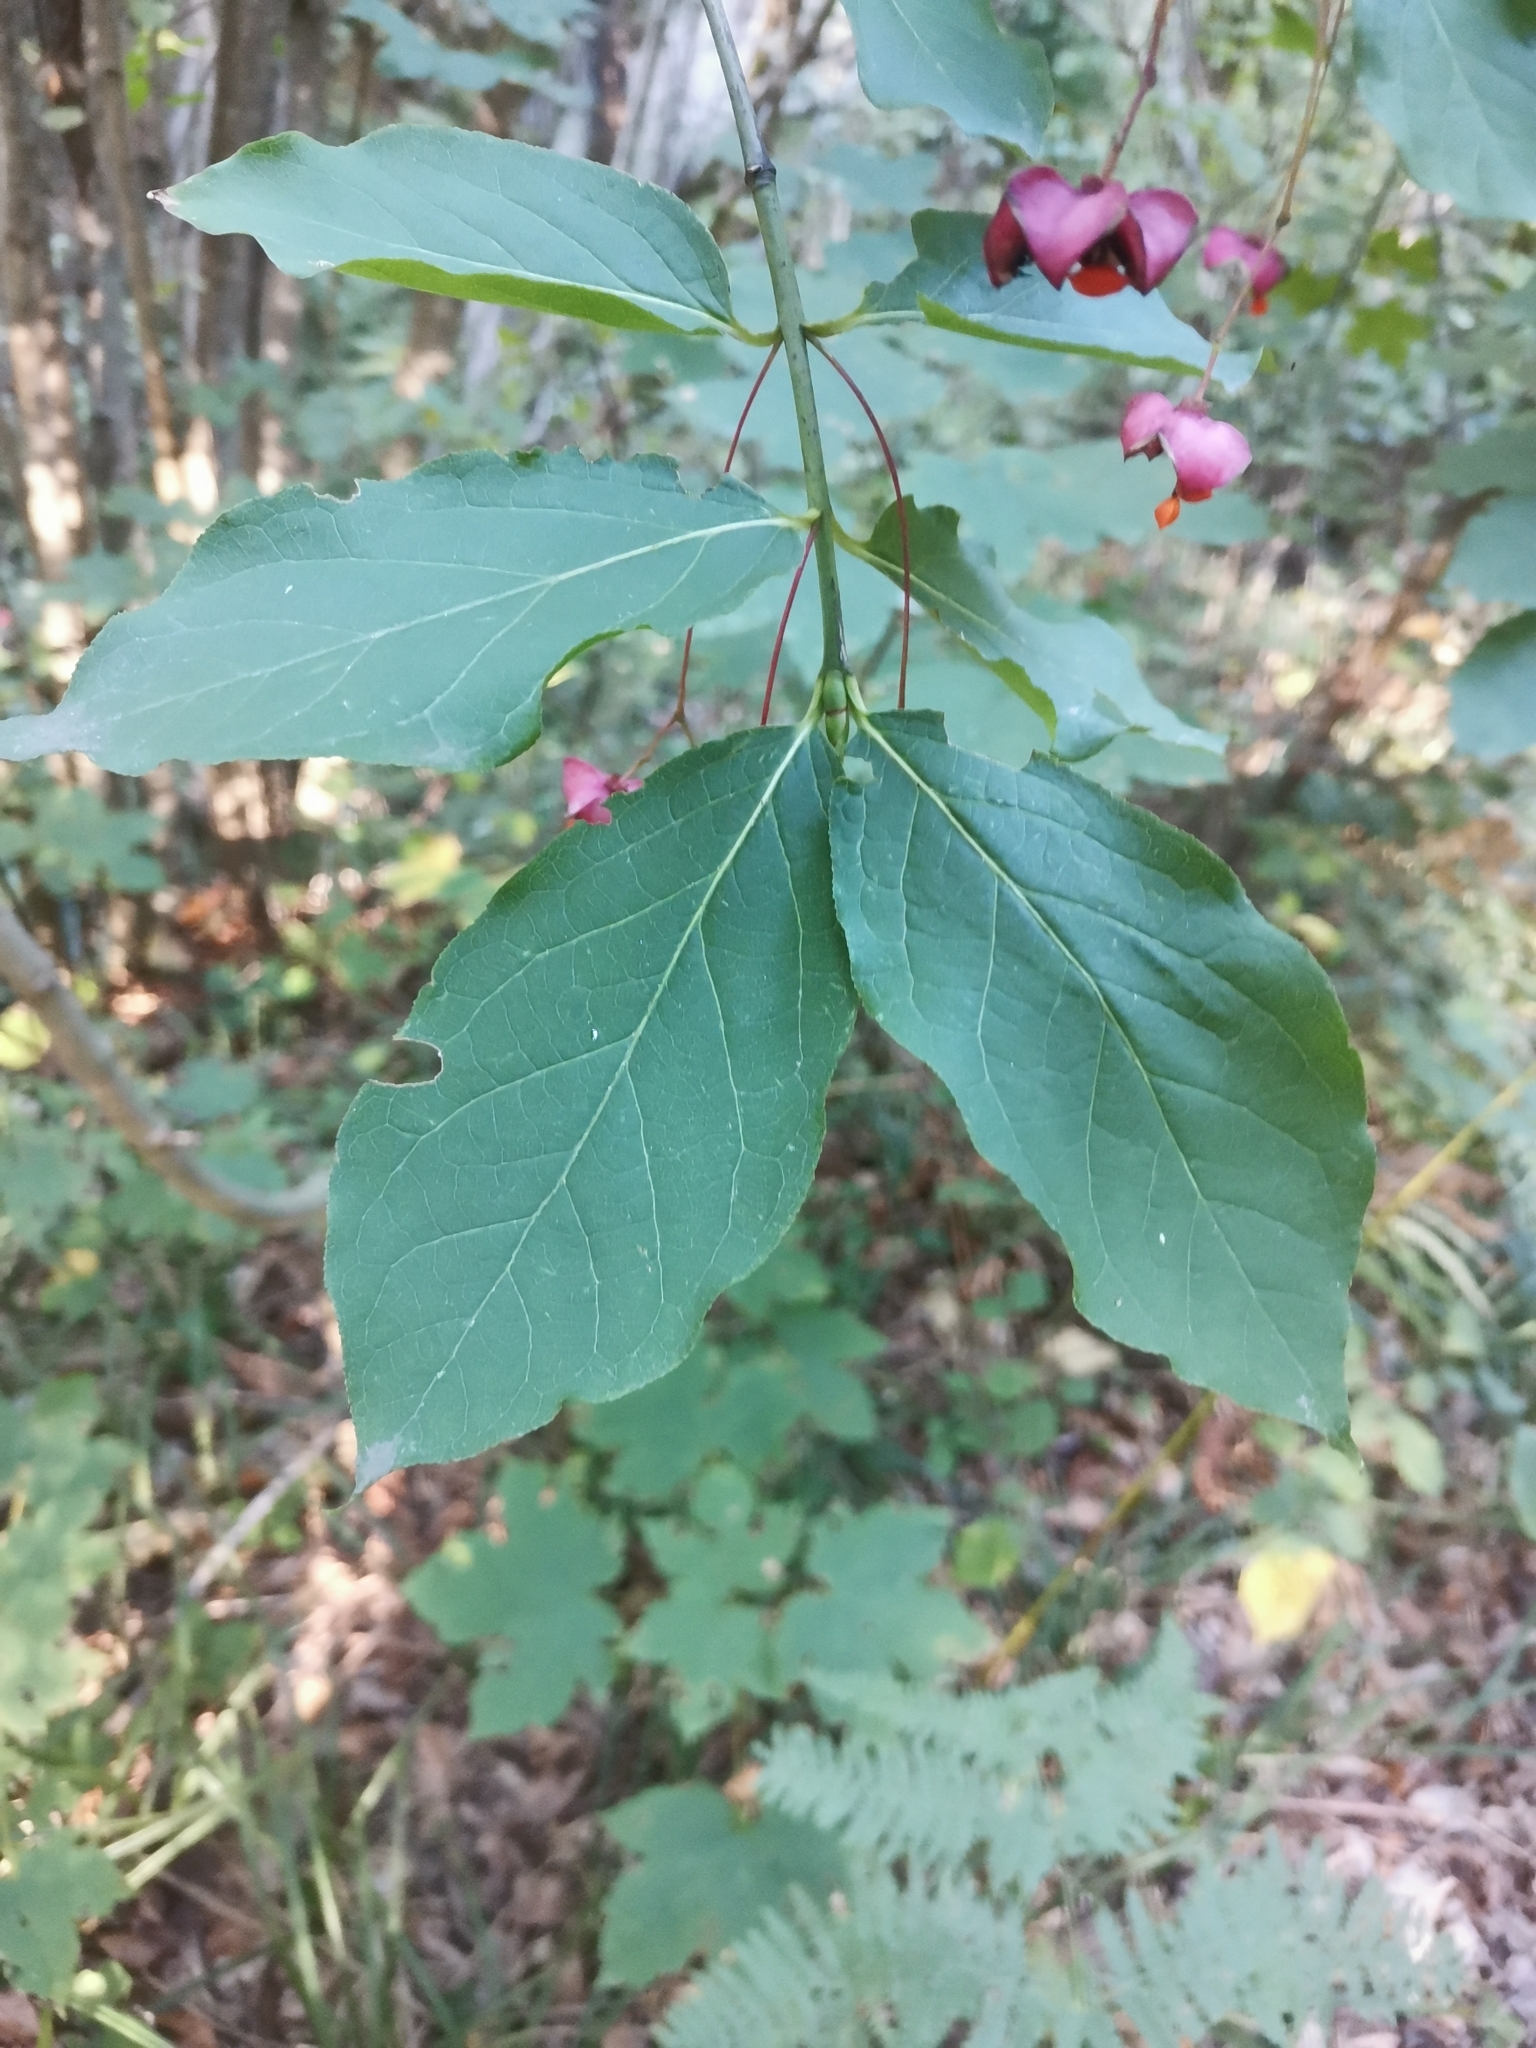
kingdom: Plantae
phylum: Tracheophyta
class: Magnoliopsida
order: Celastrales
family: Celastraceae
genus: Euonymus
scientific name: Euonymus latifolius
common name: Large-leaved spindle
